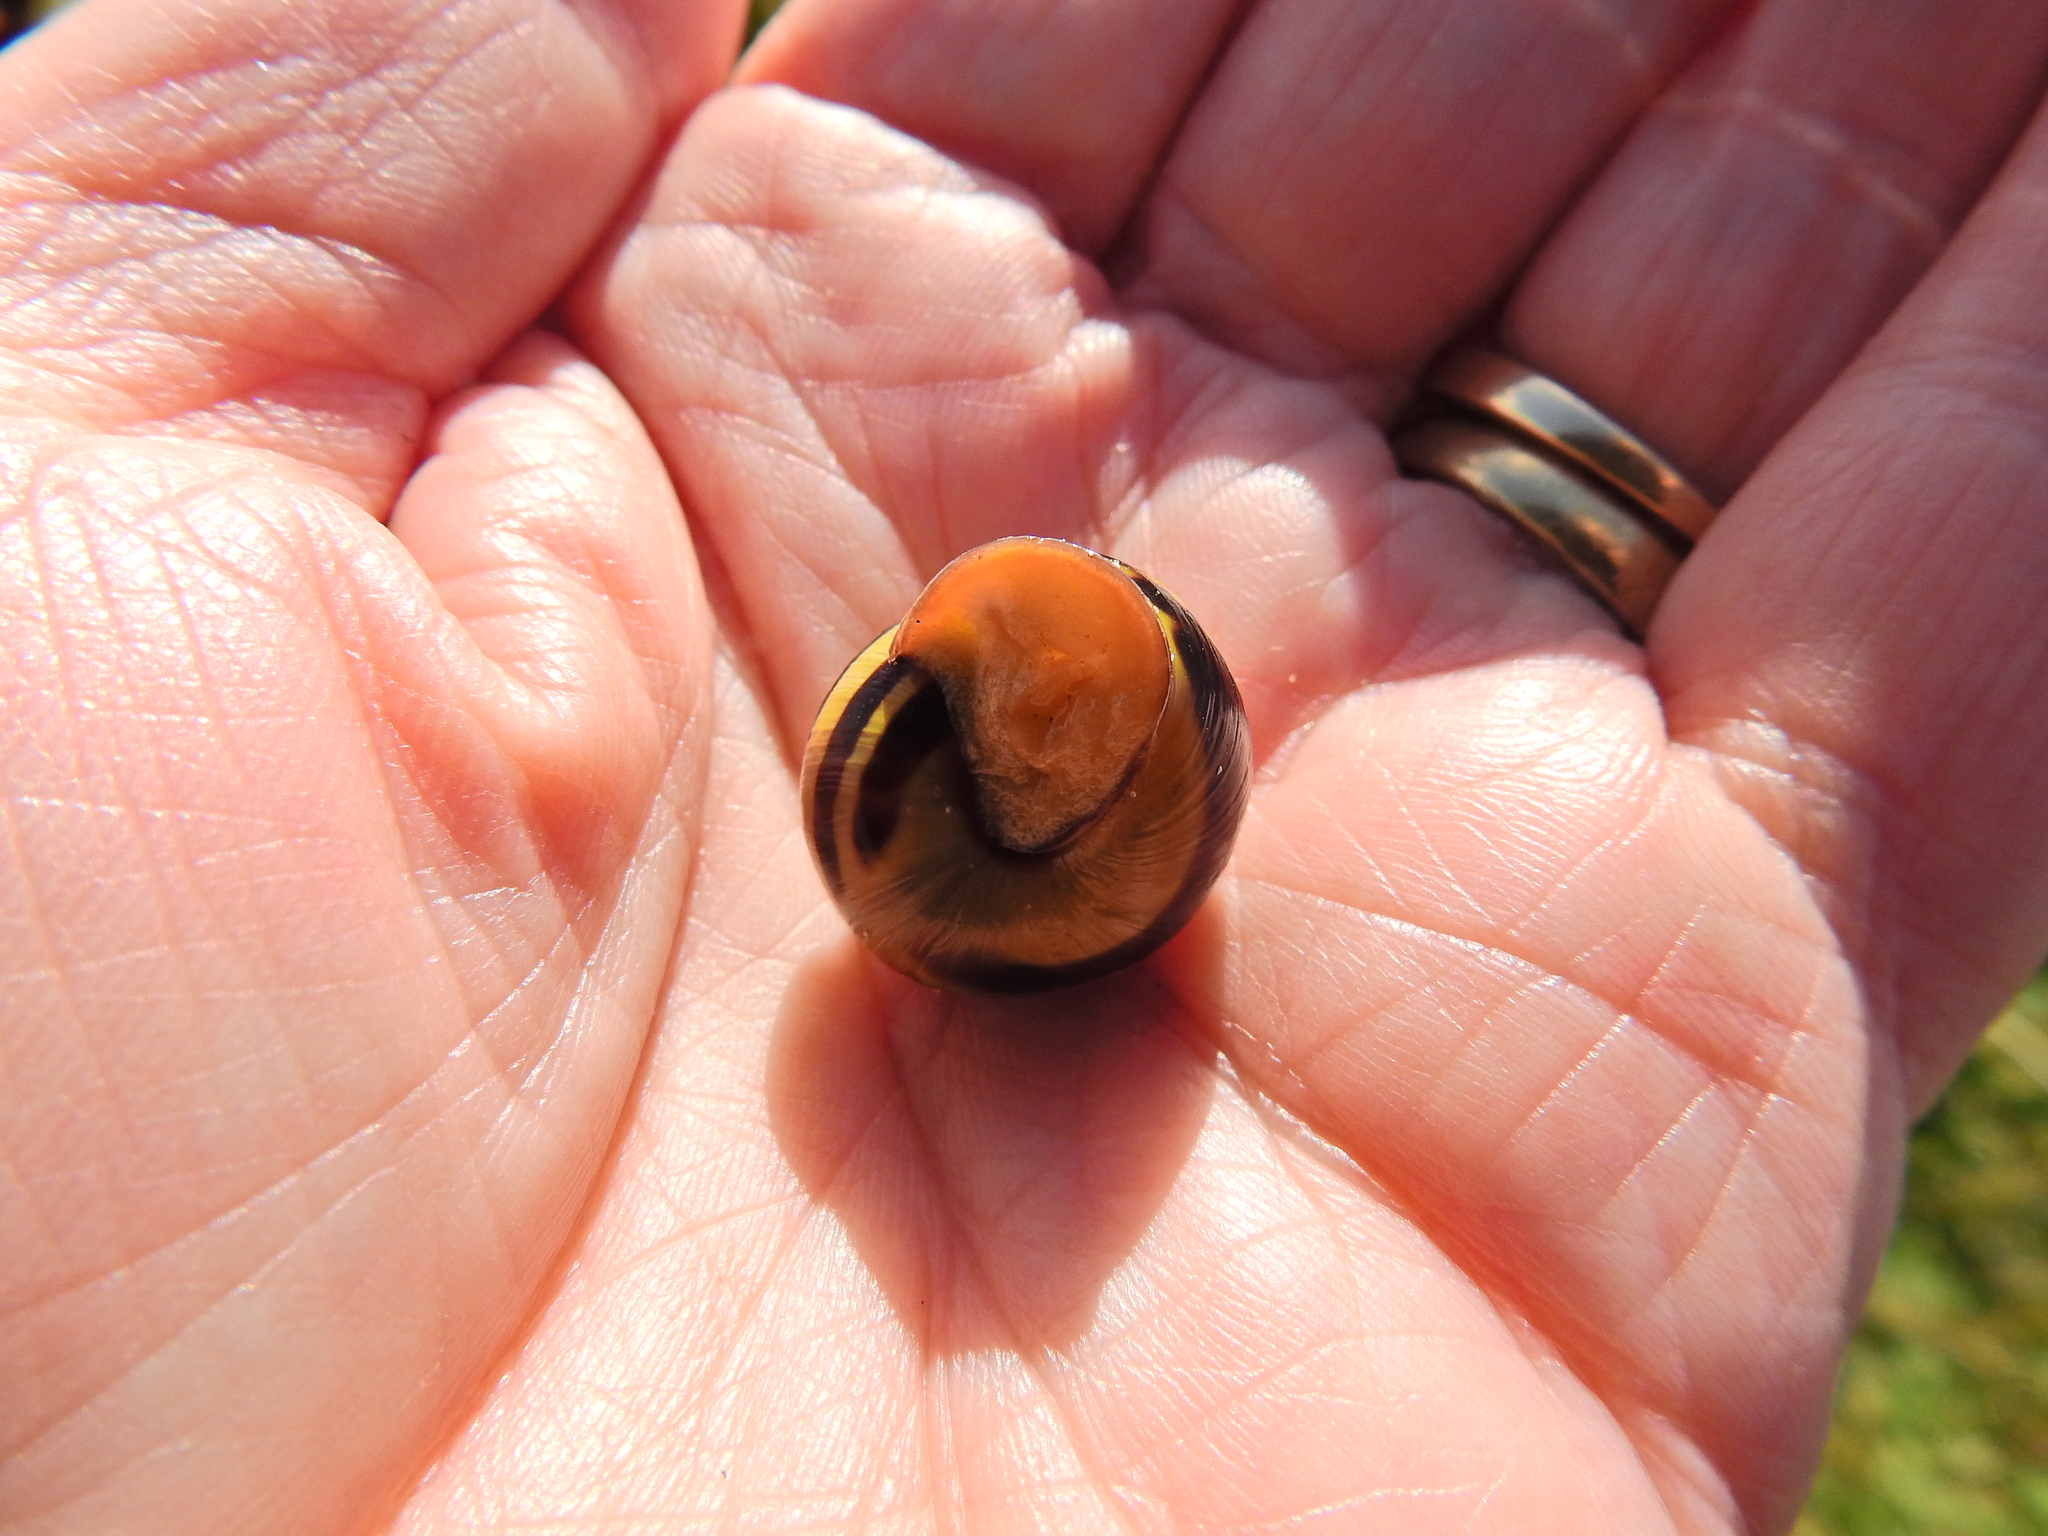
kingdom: Animalia
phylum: Mollusca
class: Gastropoda
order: Stylommatophora
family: Helicidae
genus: Cepaea
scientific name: Cepaea nemoralis
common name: Grovesnail
